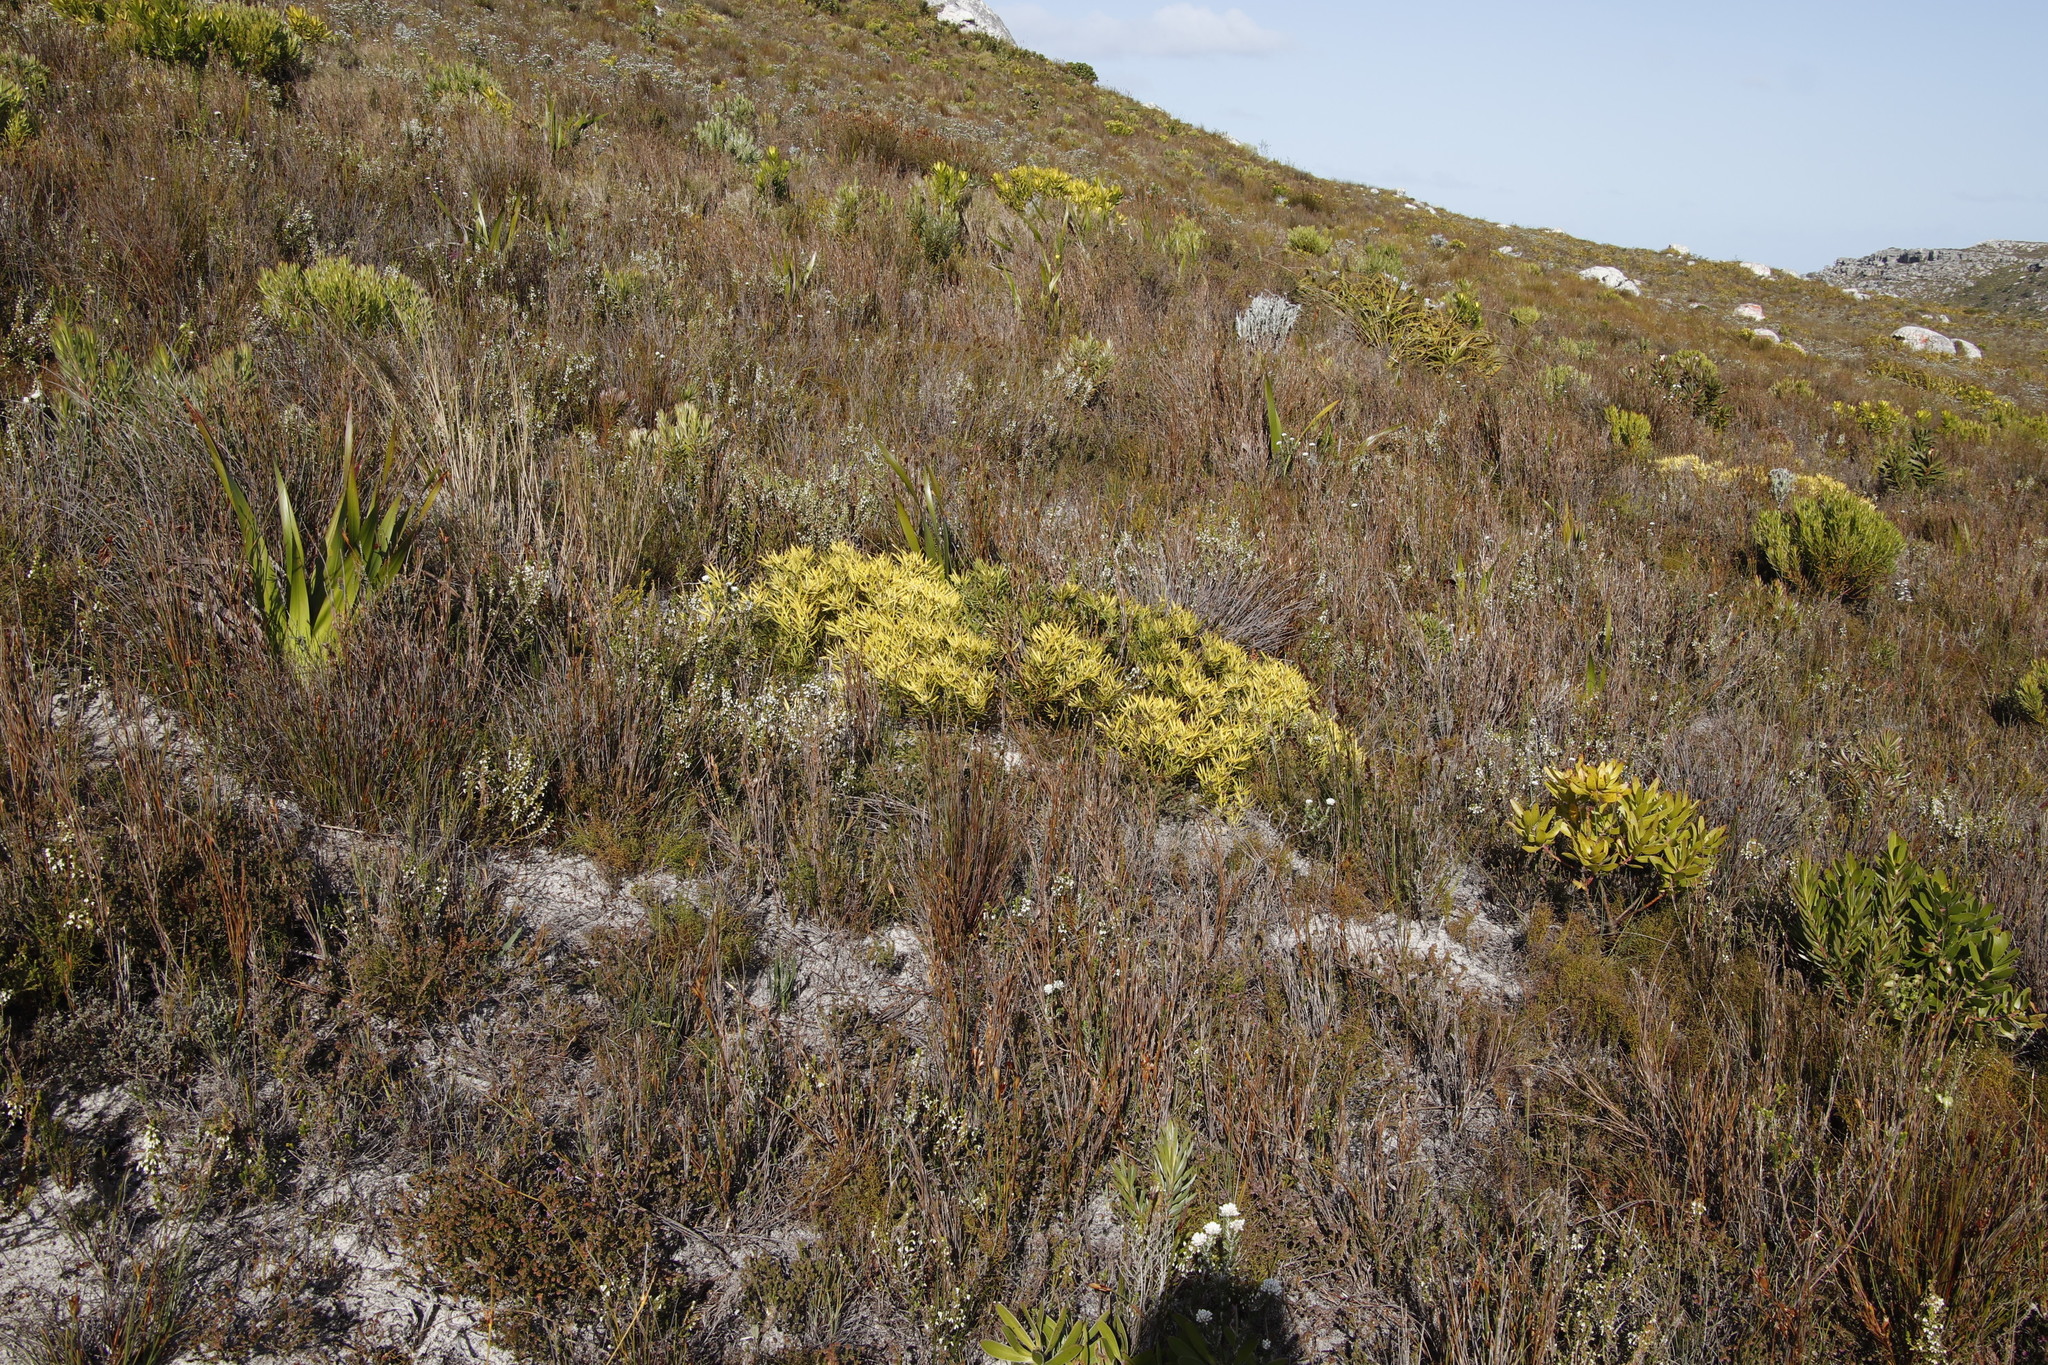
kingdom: Plantae
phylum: Tracheophyta
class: Magnoliopsida
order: Proteales
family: Proteaceae
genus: Leucadendron
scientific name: Leucadendron salignum
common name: Common sunshine conebush
